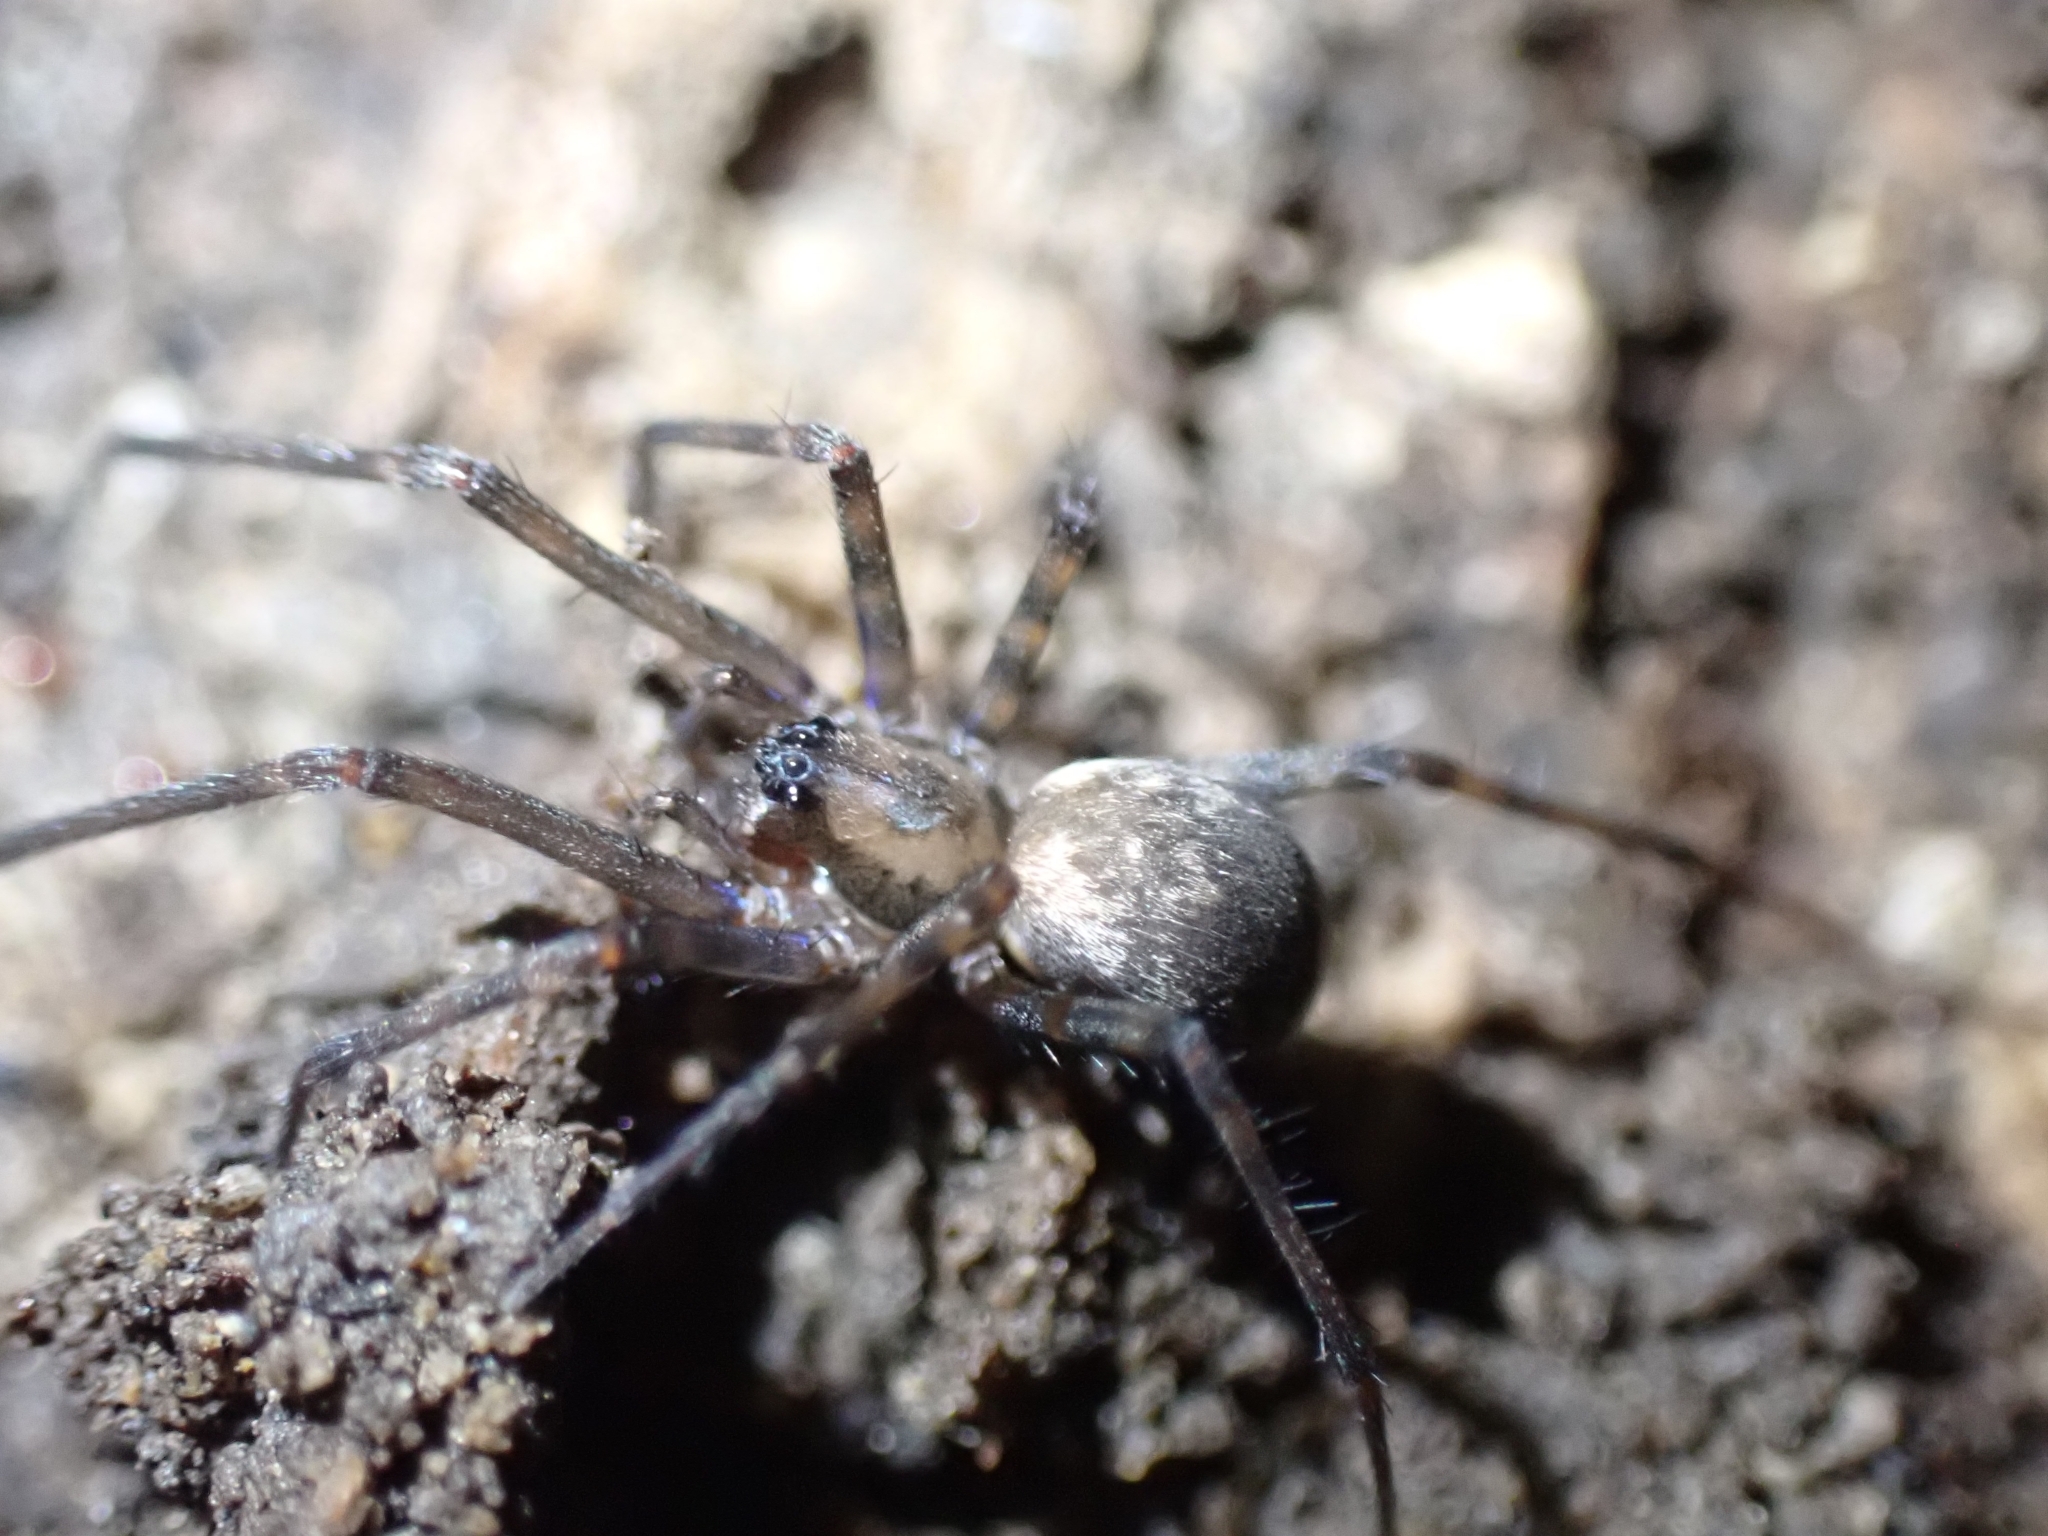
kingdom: Animalia
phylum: Arthropoda
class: Arachnida
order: Araneae
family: Desidae
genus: Nanocambridgea
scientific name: Nanocambridgea gracilipes
